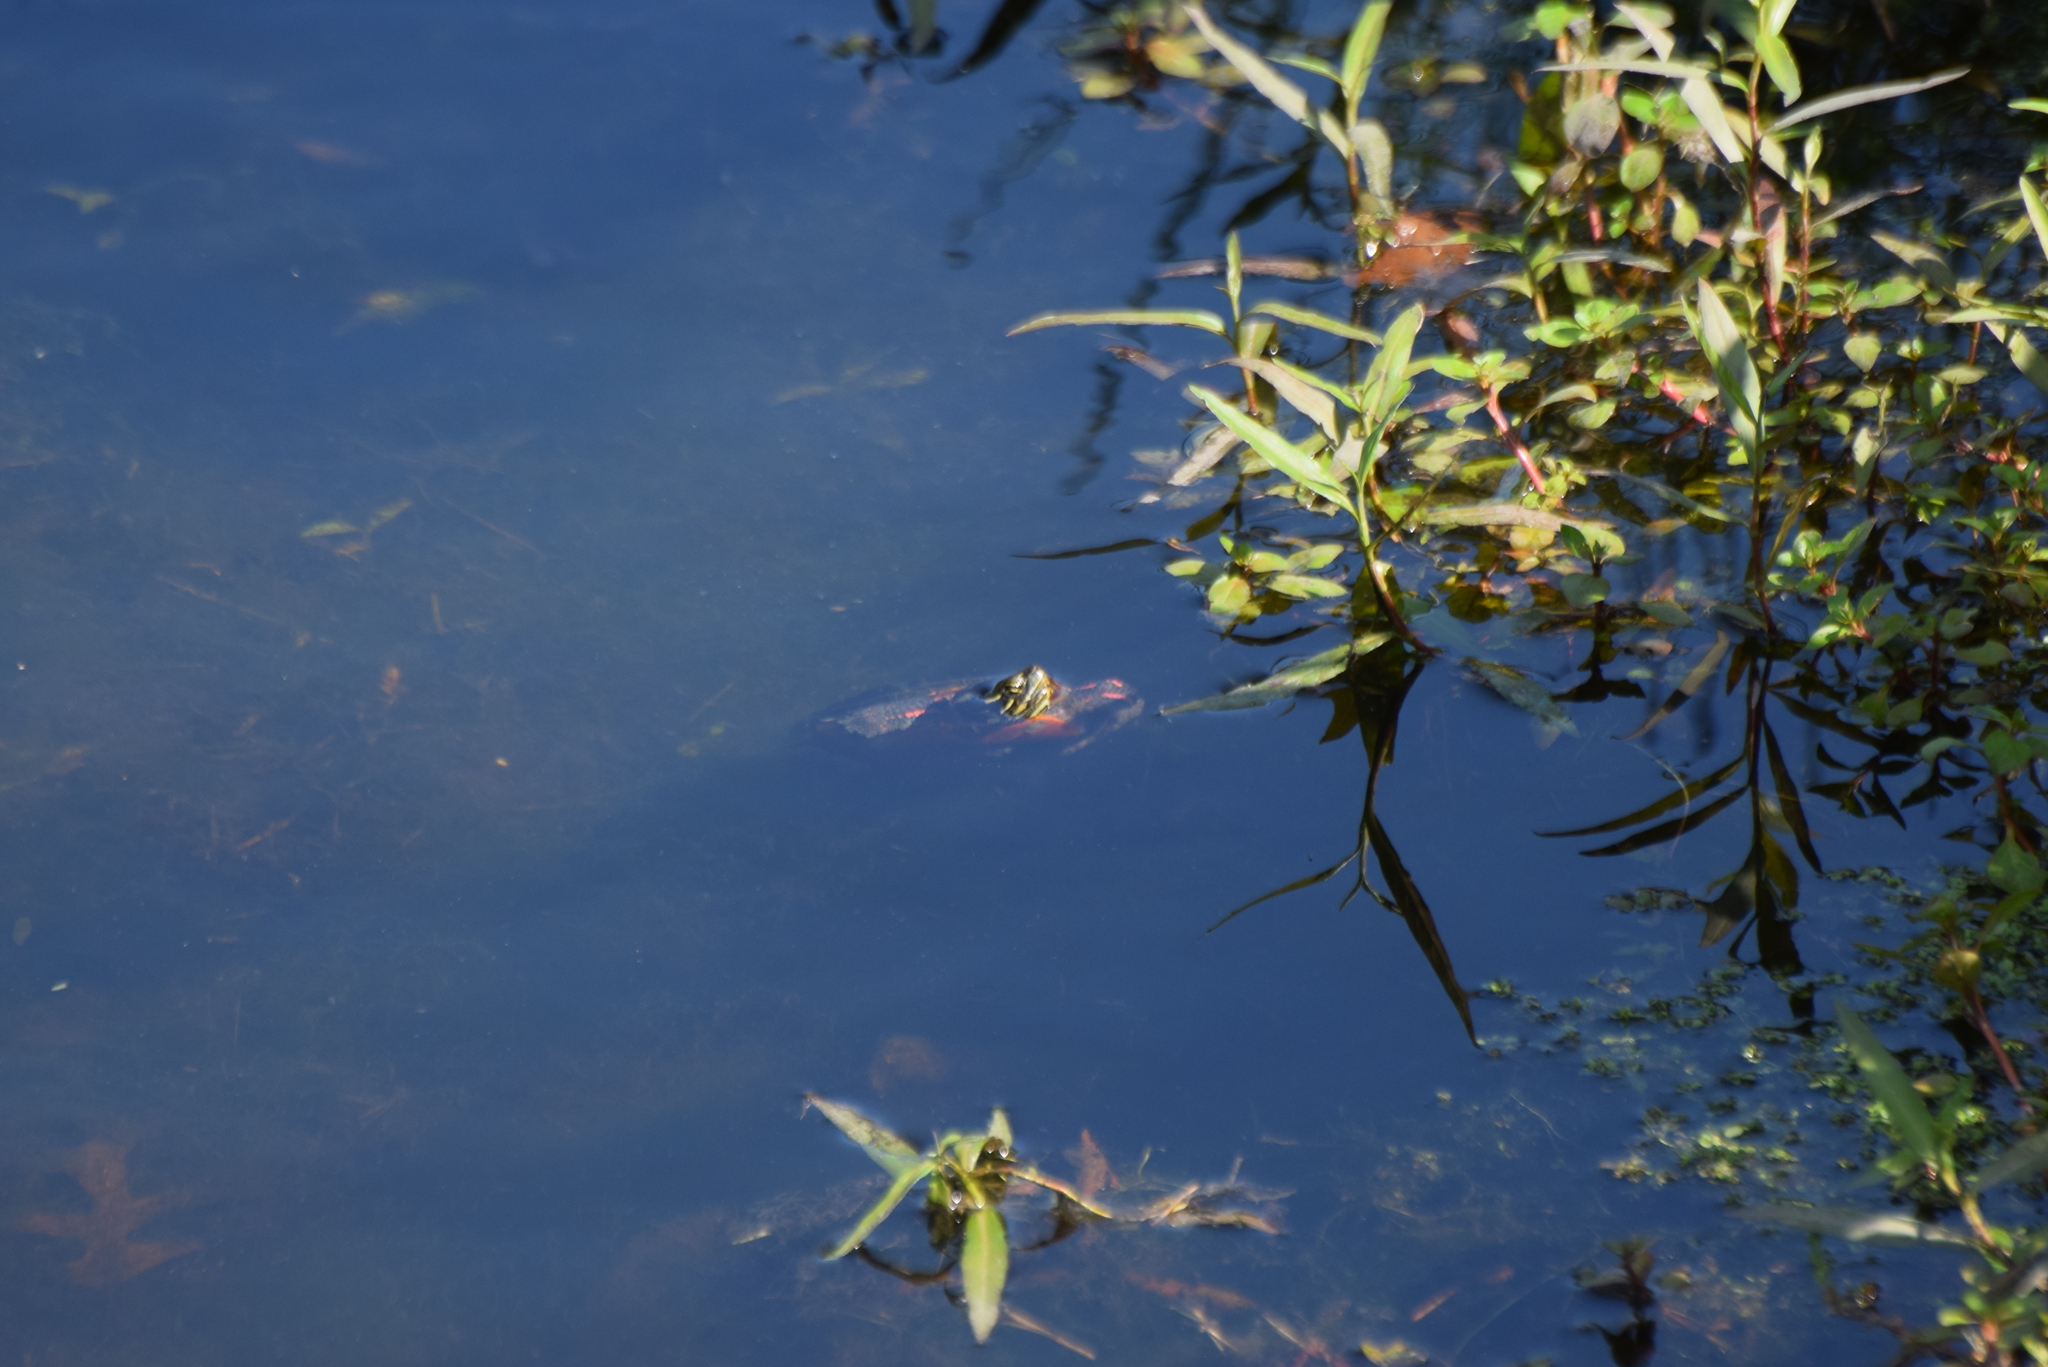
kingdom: Animalia
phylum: Chordata
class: Testudines
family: Emydidae
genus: Chrysemys
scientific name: Chrysemys picta
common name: Painted turtle
